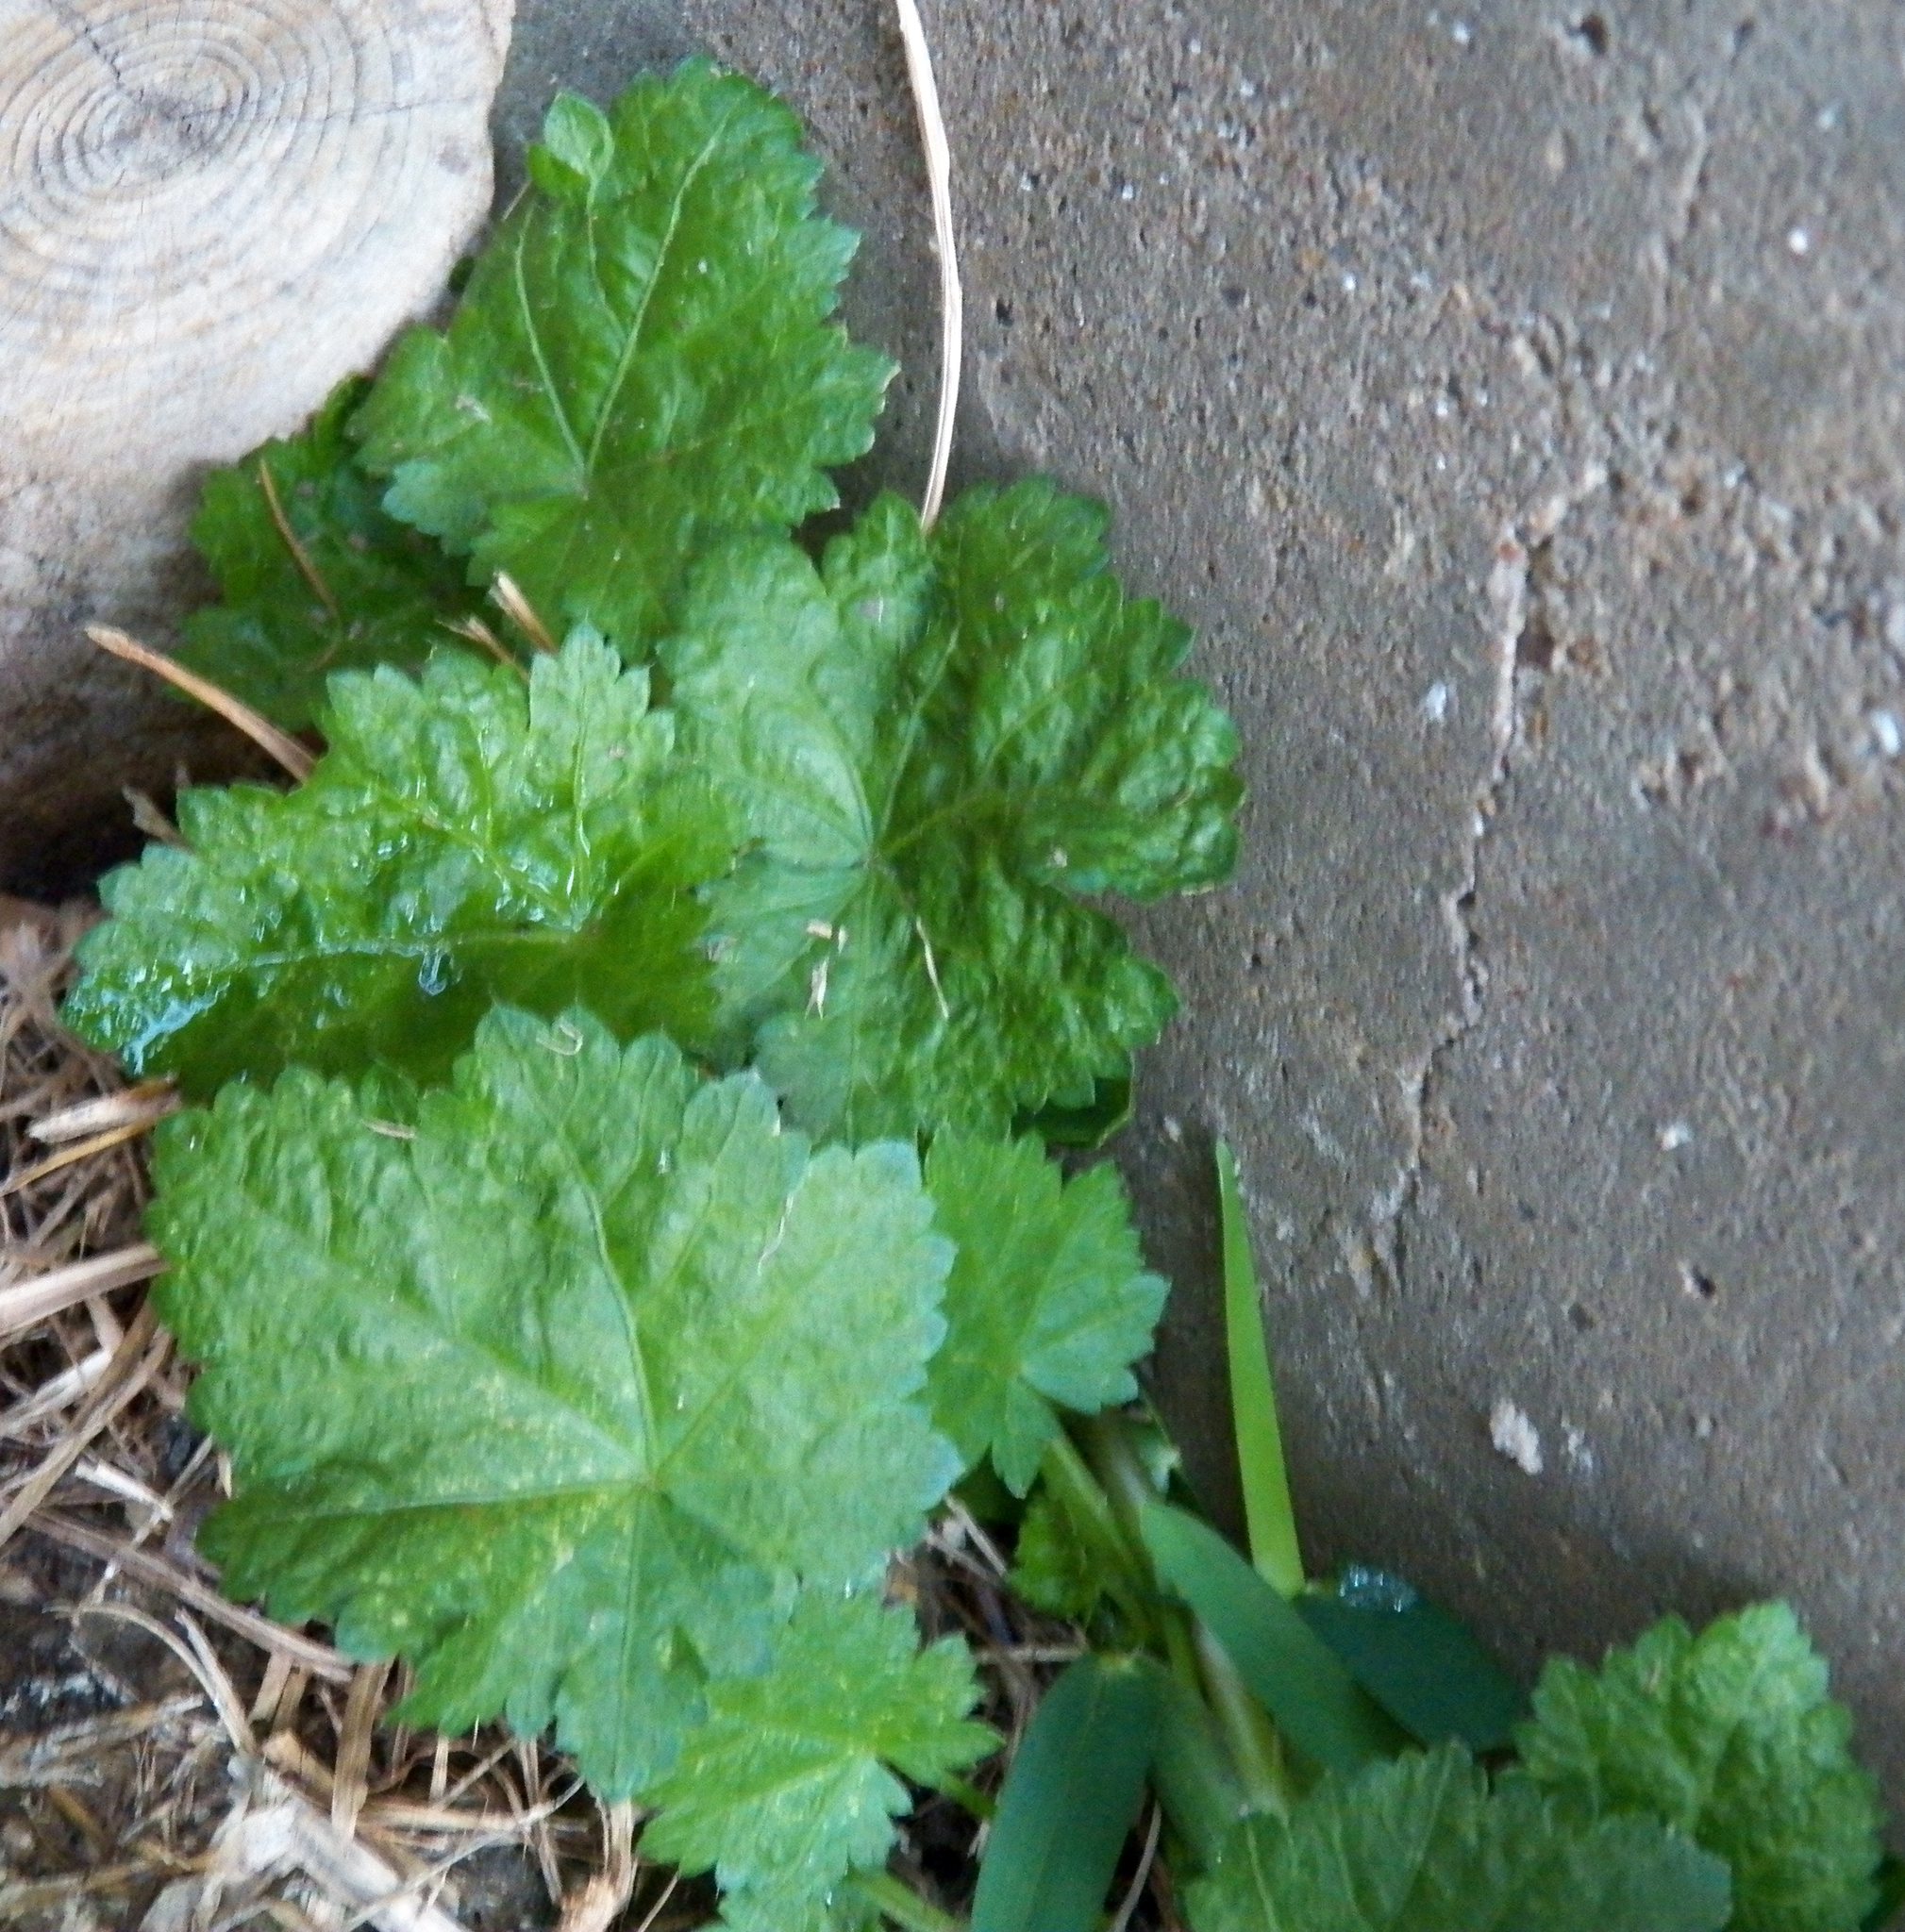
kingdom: Plantae
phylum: Tracheophyta
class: Magnoliopsida
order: Malvales
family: Malvaceae
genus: Modiola
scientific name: Modiola caroliniana
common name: Carolina bristlemallow
